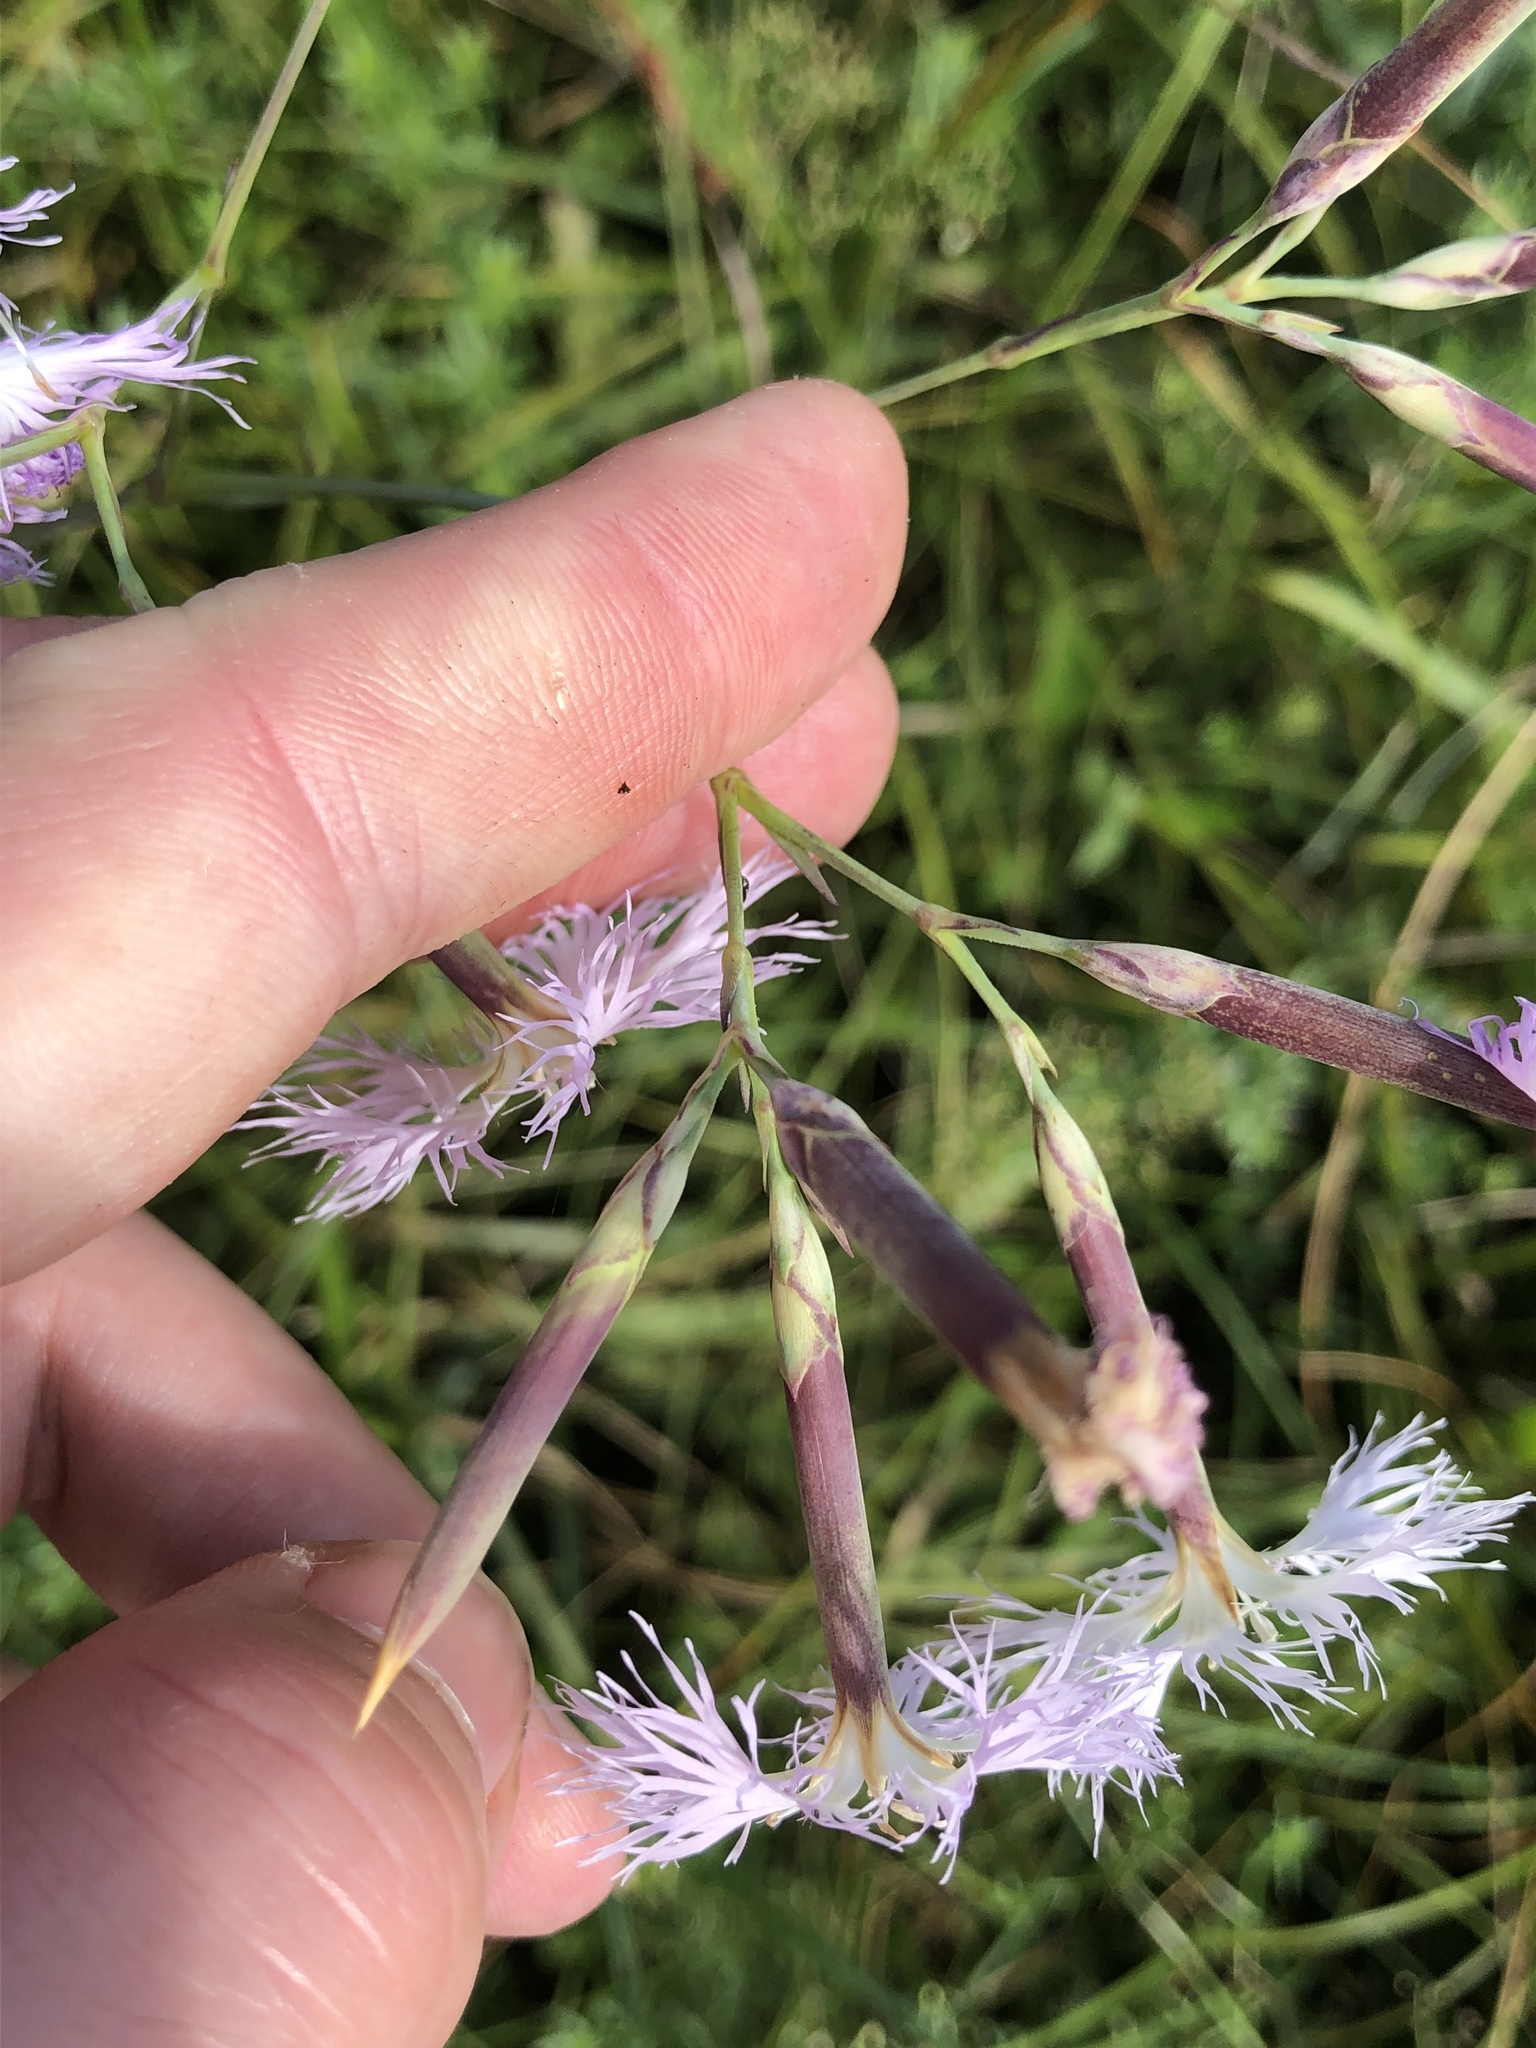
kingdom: Plantae
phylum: Tracheophyta
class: Magnoliopsida
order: Caryophyllales
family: Caryophyllaceae
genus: Dianthus
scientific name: Dianthus superbus
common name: Fringed pink
